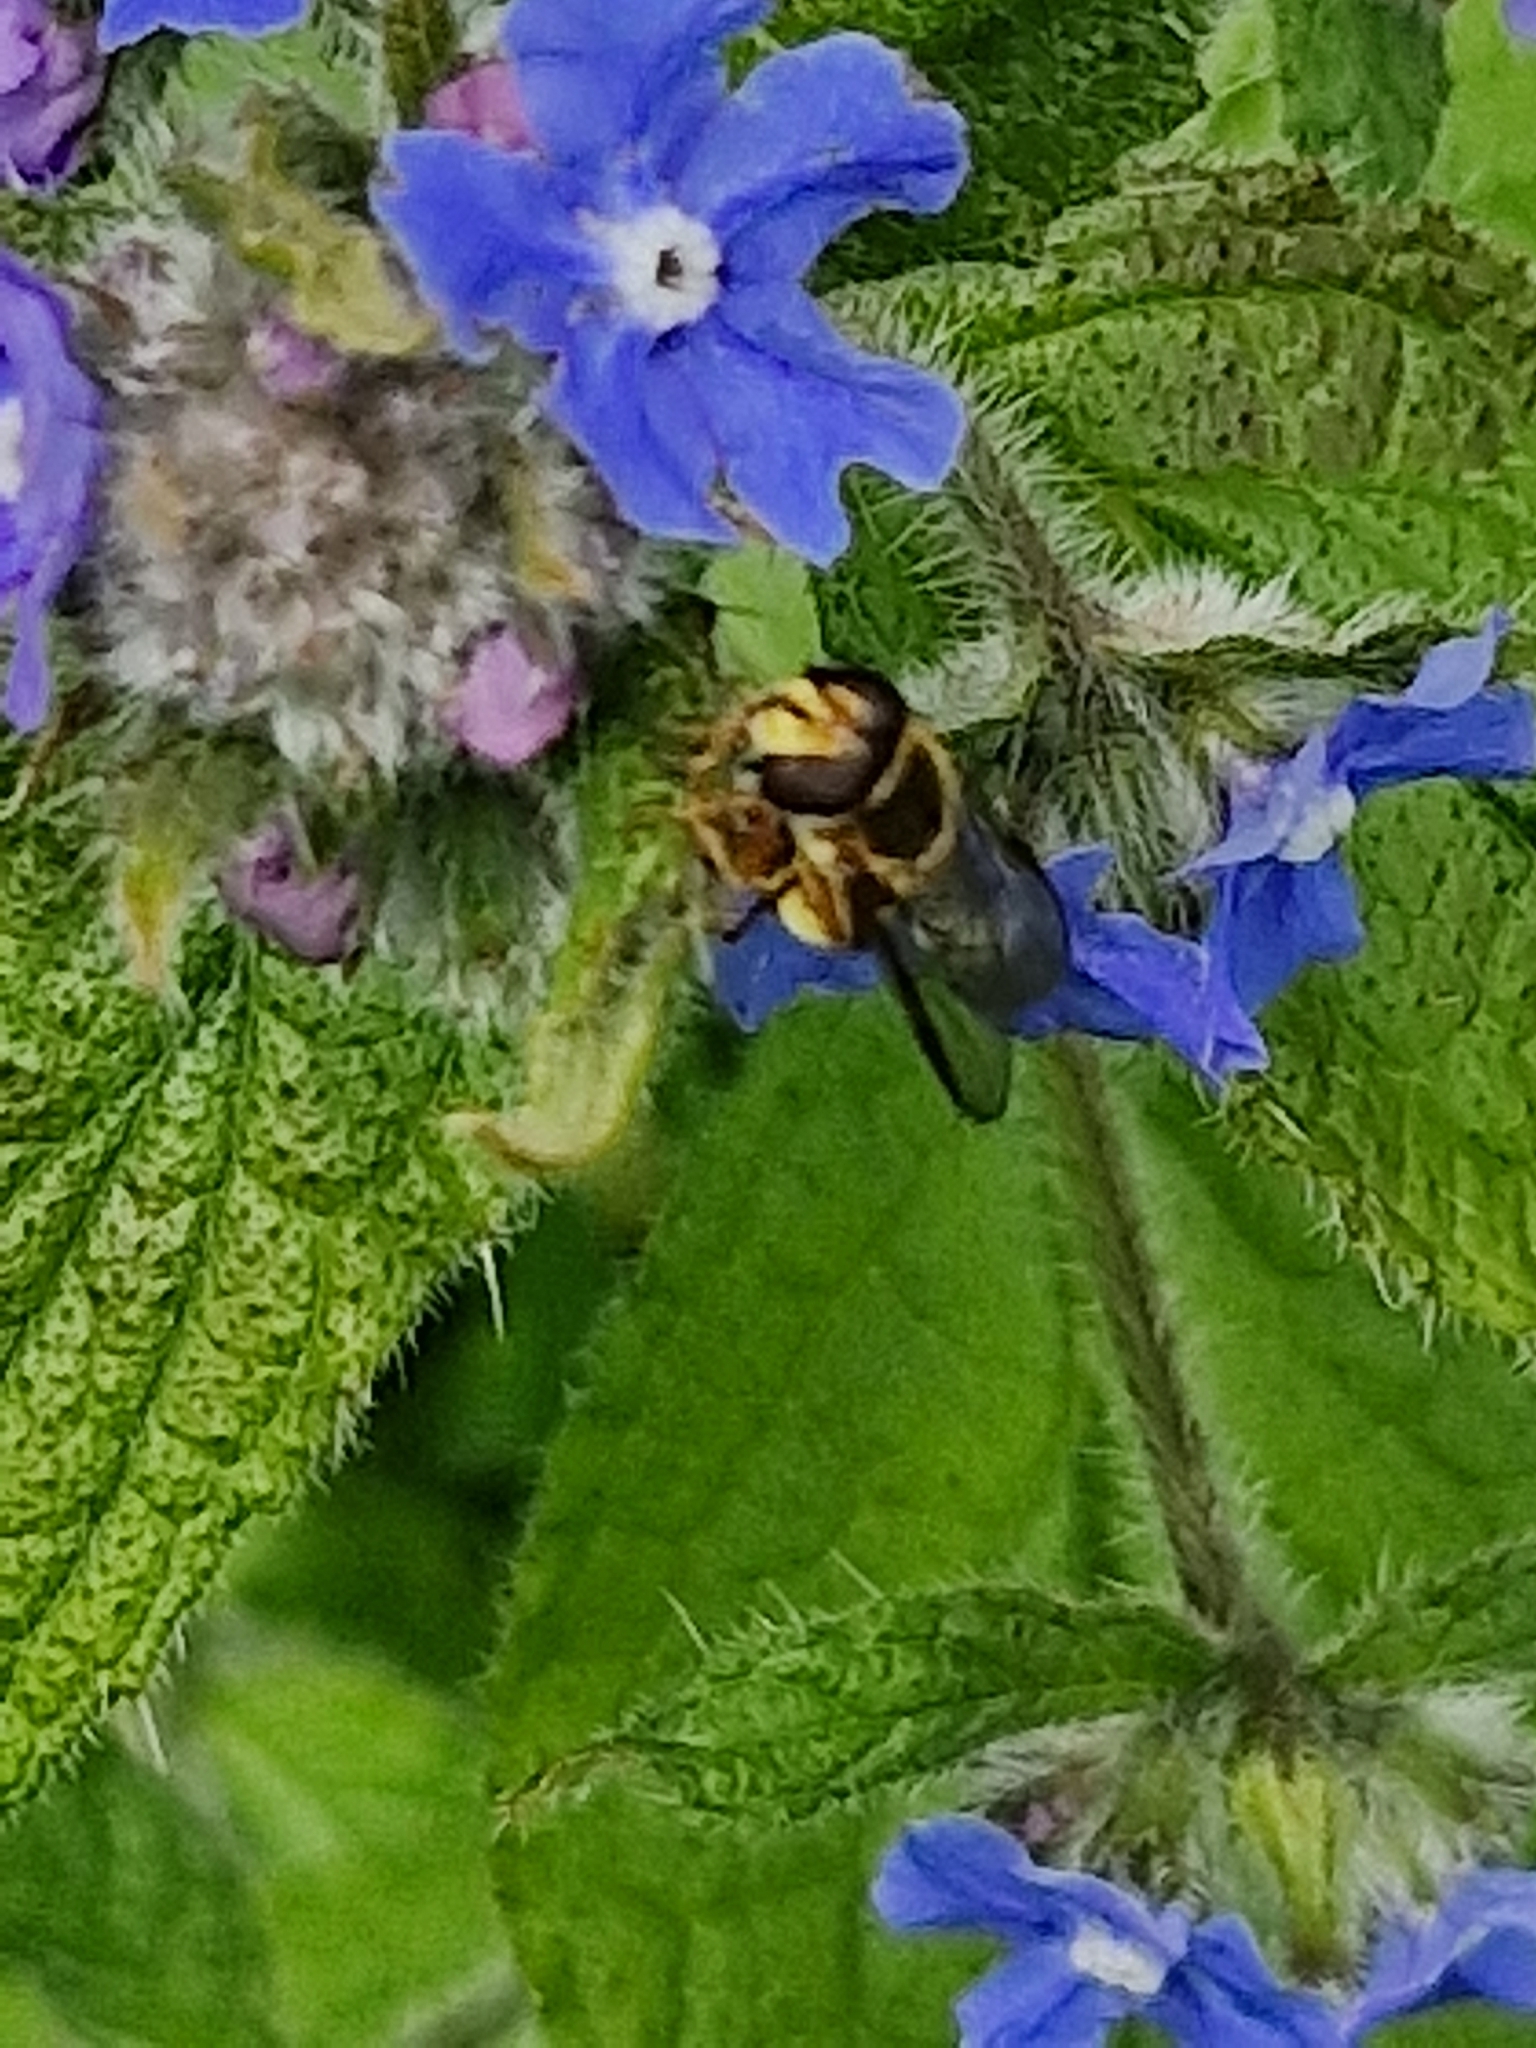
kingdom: Animalia
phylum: Arthropoda
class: Insecta
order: Diptera
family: Syrphidae
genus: Eupeodes
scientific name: Eupeodes
